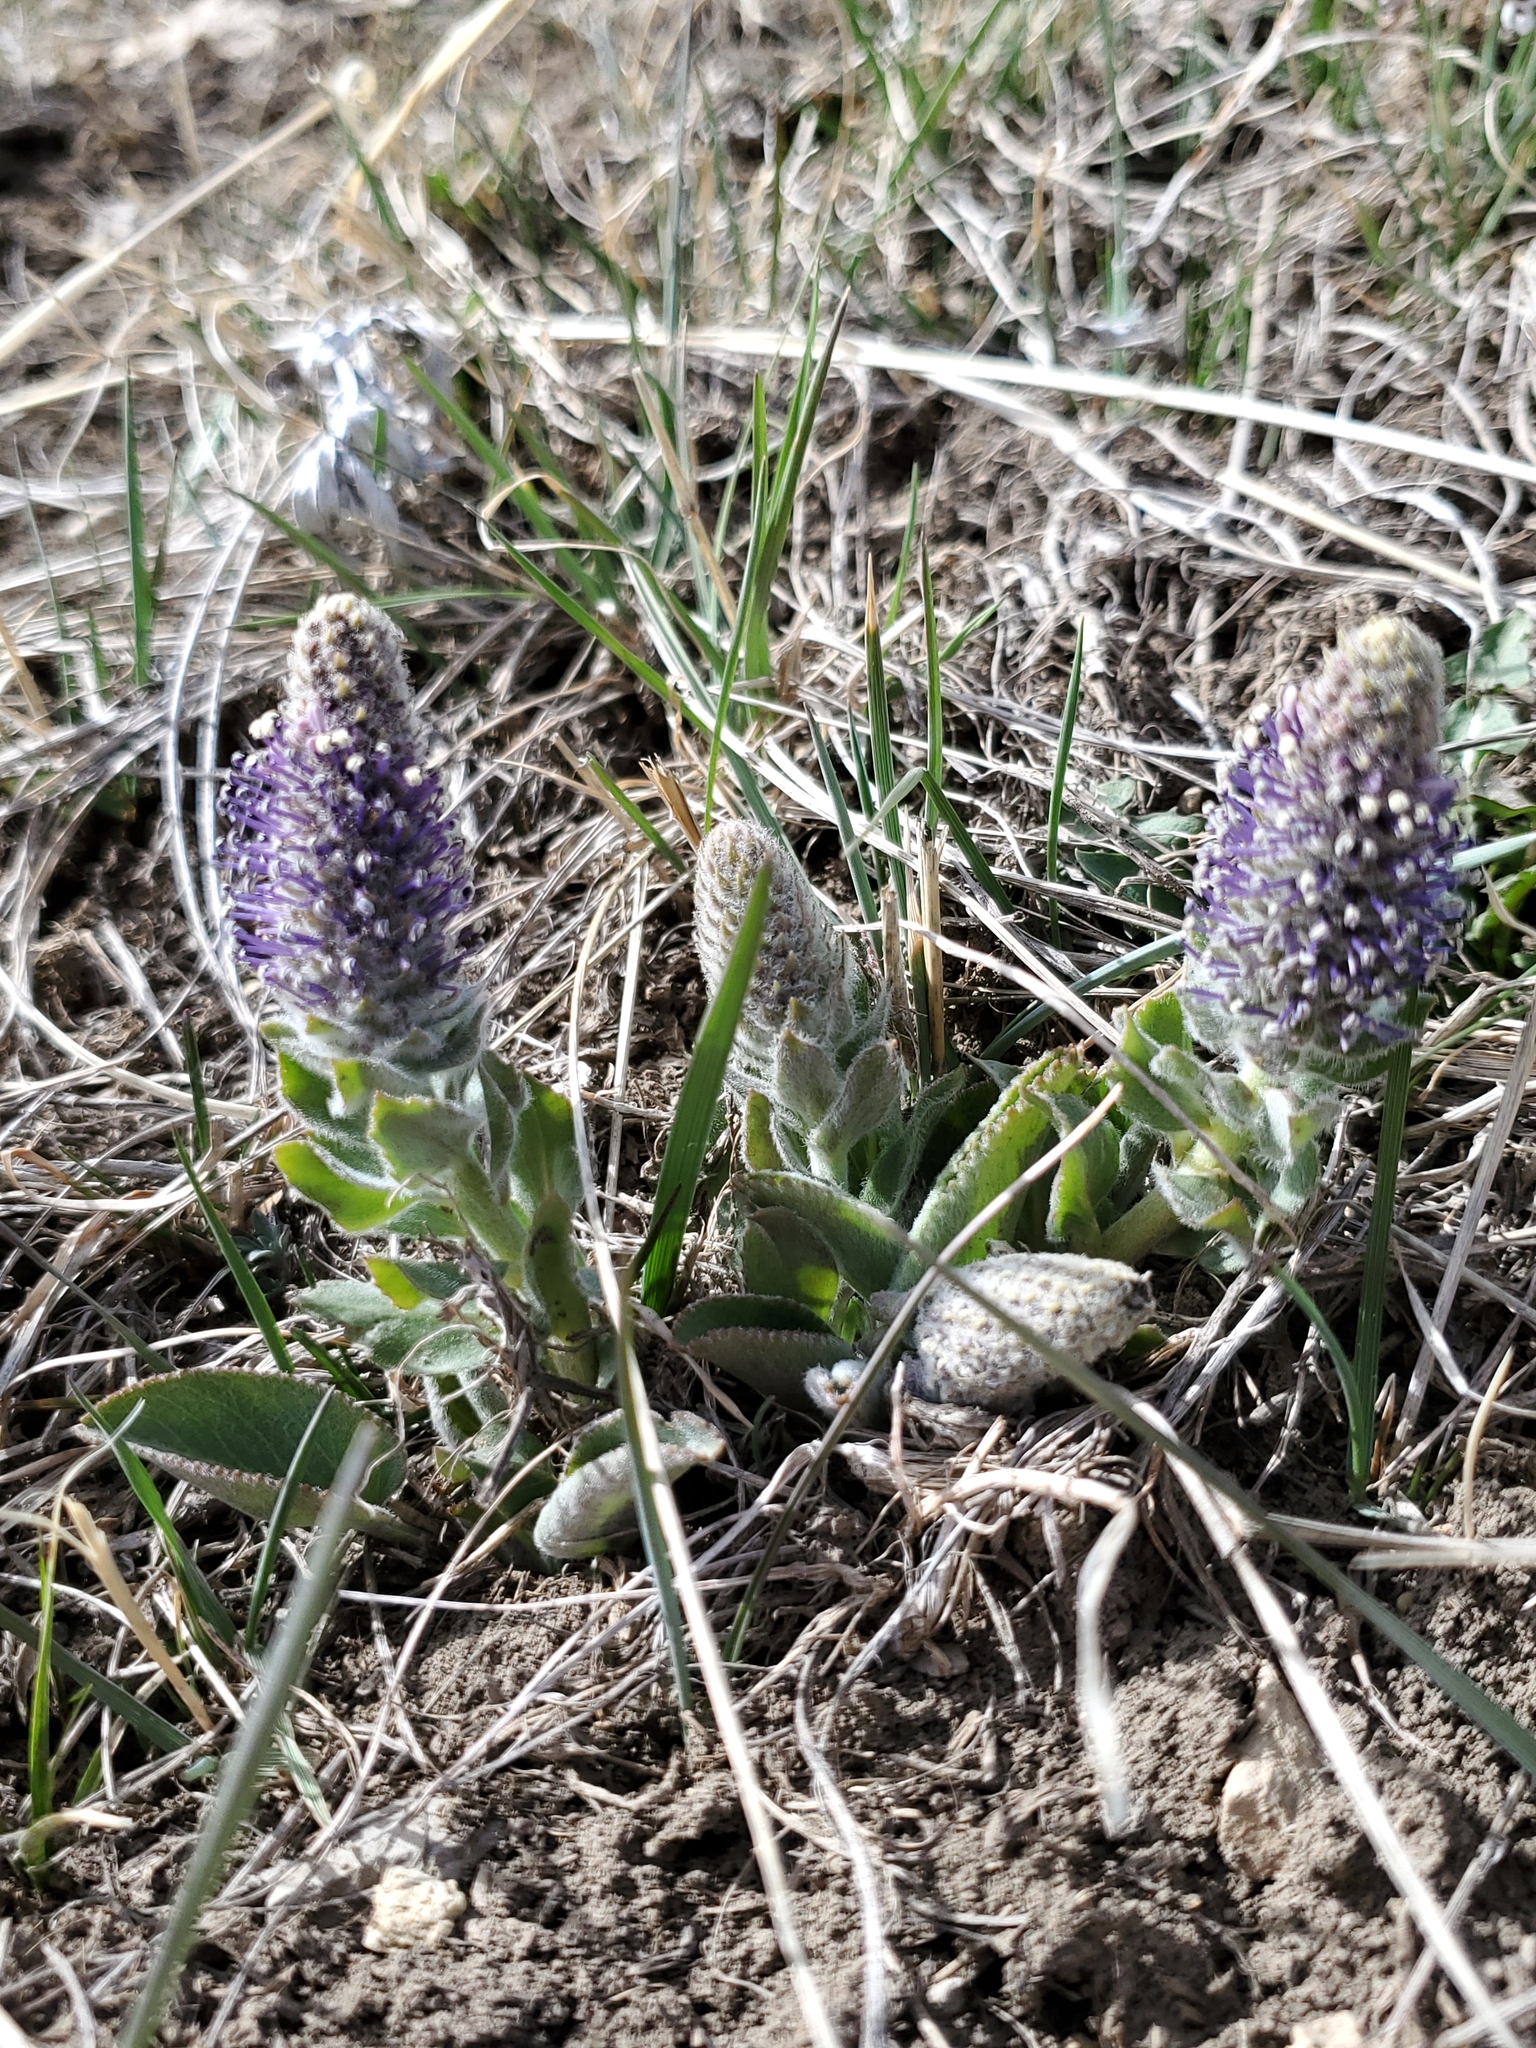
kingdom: Plantae
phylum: Tracheophyta
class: Magnoliopsida
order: Lamiales
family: Plantaginaceae
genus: Synthyris
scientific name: Synthyris wyomingensis
